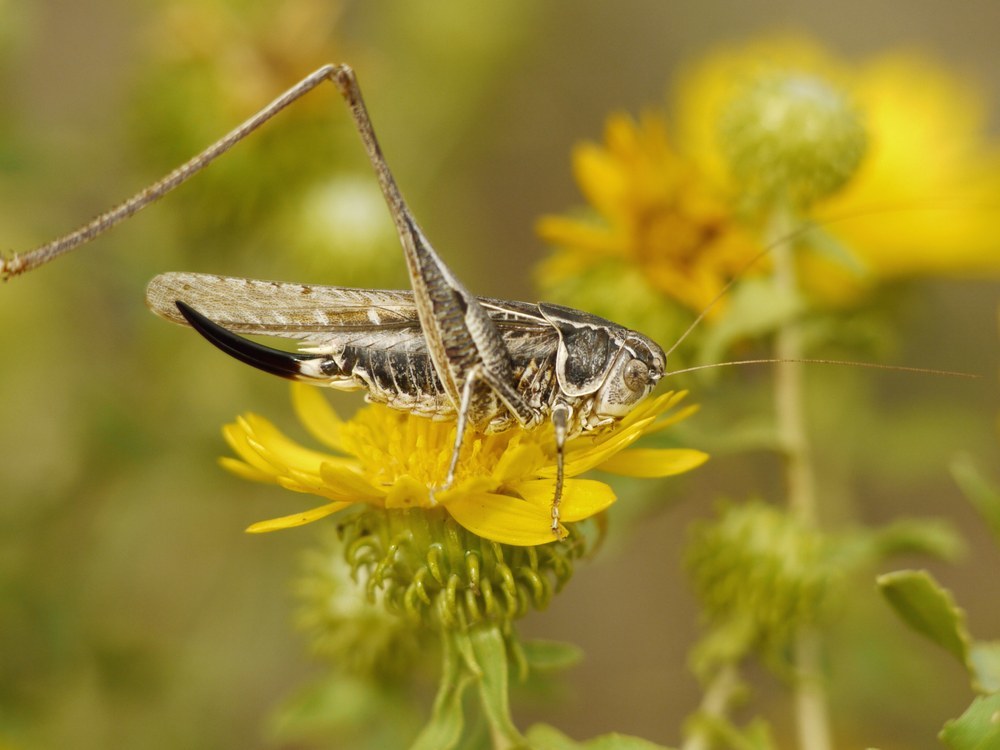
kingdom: Animalia
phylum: Arthropoda
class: Insecta
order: Orthoptera
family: Tettigoniidae
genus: Montana
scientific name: Montana stricta
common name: Italian bush-cricket
